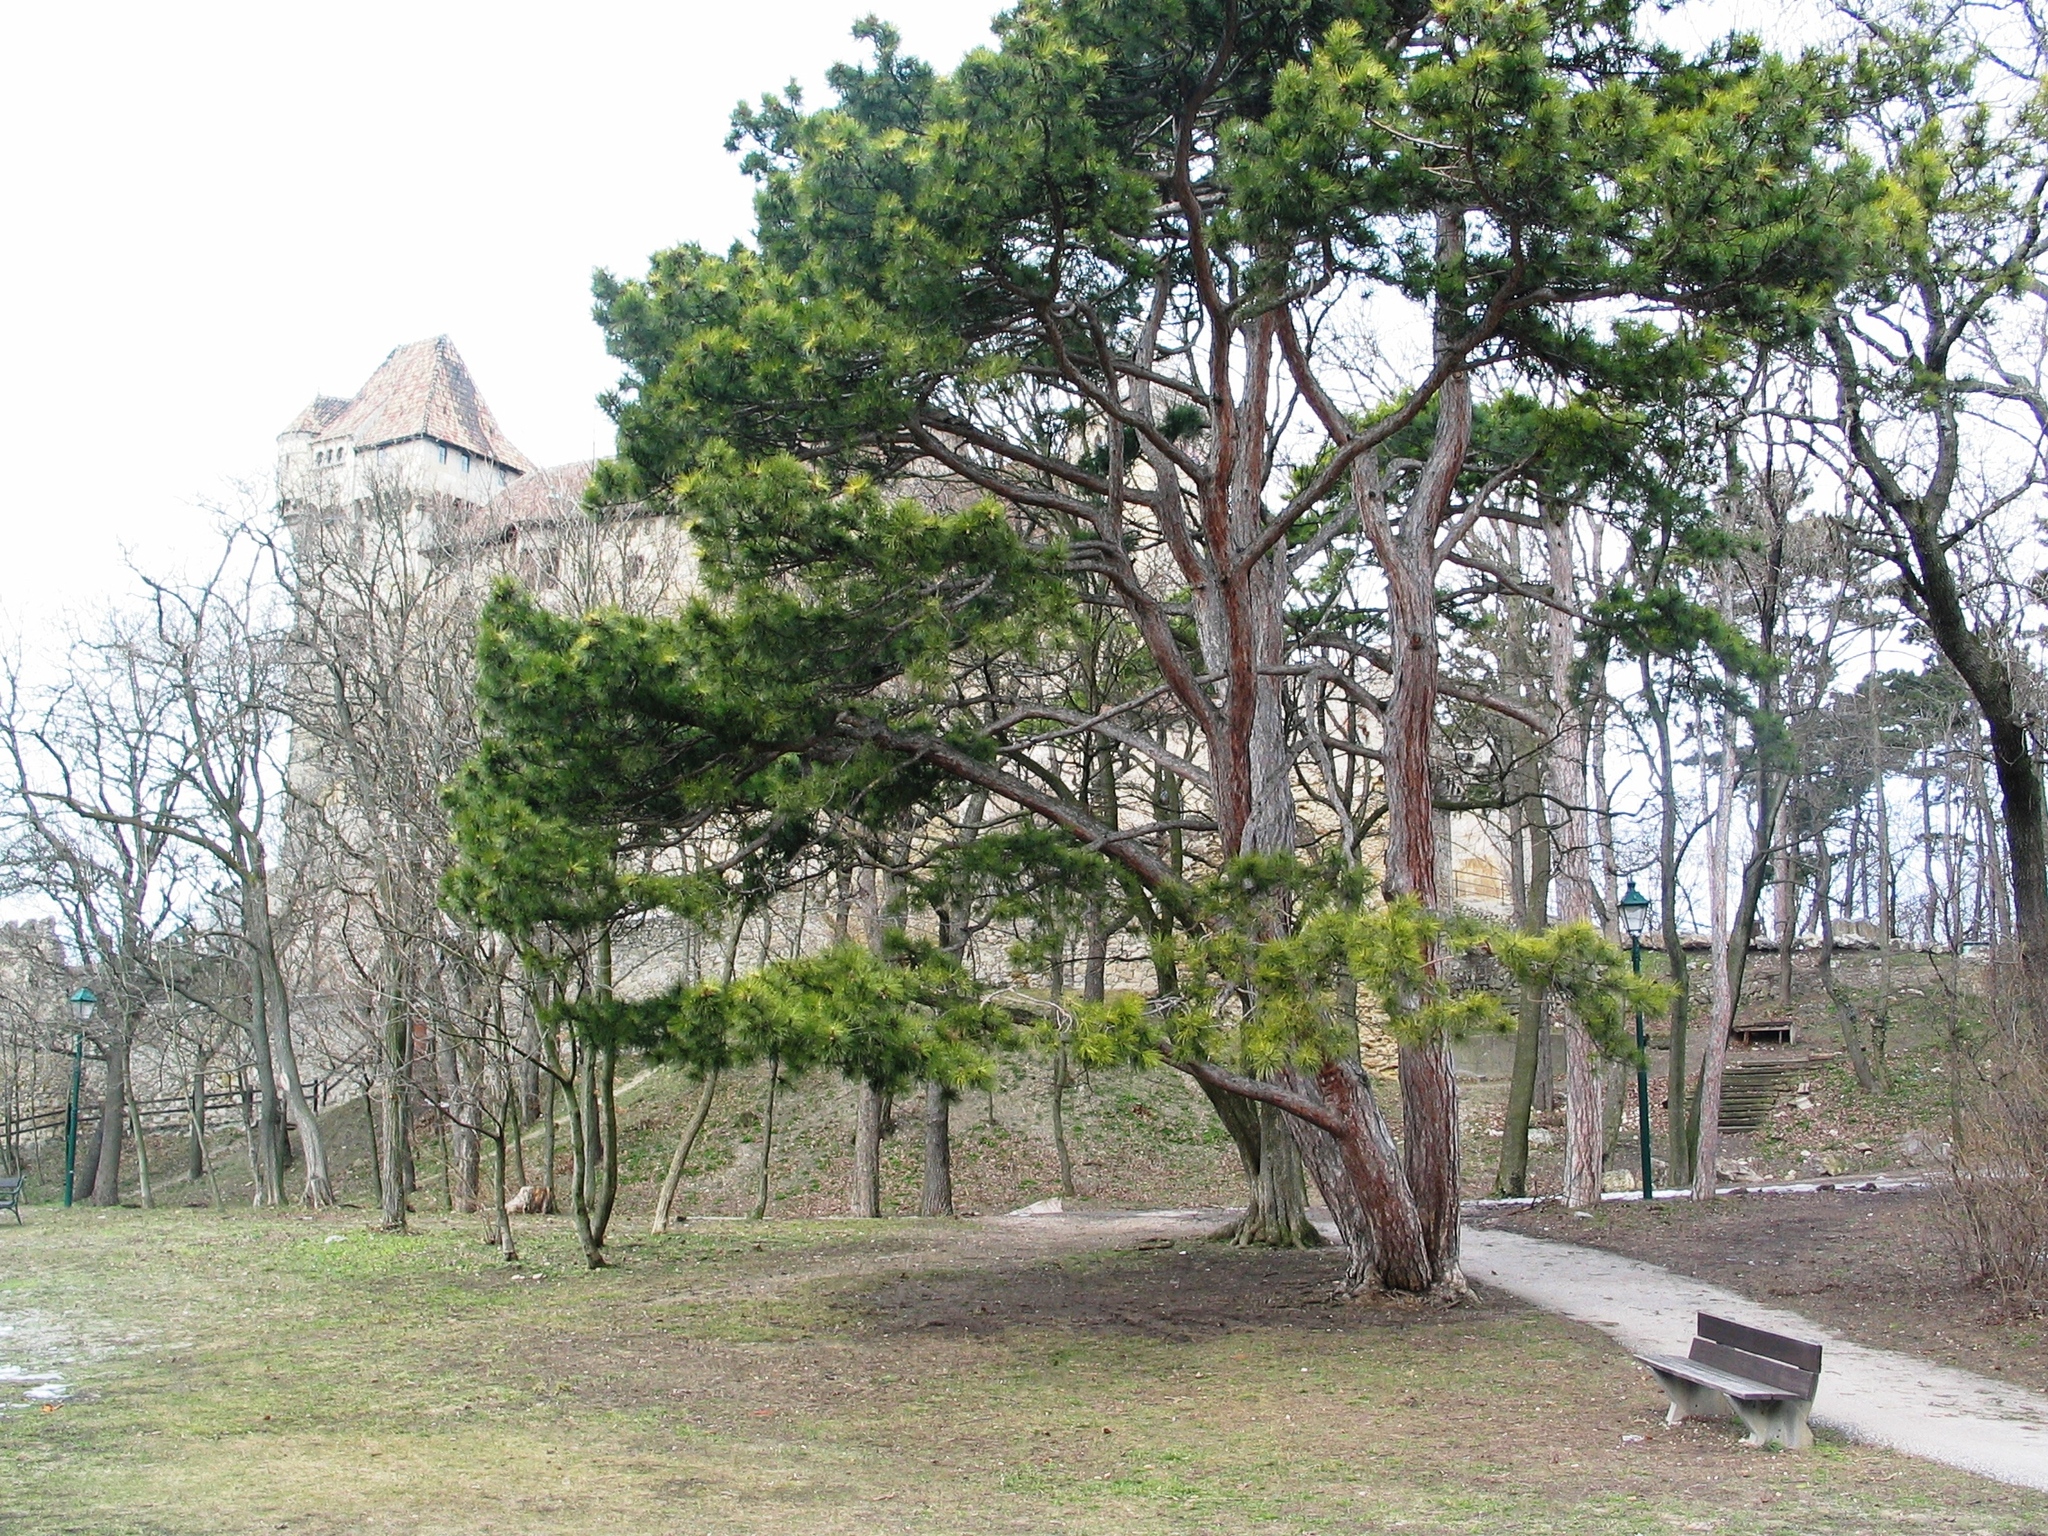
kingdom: Plantae
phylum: Tracheophyta
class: Pinopsida
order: Pinales
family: Pinaceae
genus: Pinus
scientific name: Pinus nigra
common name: Austrian pine
